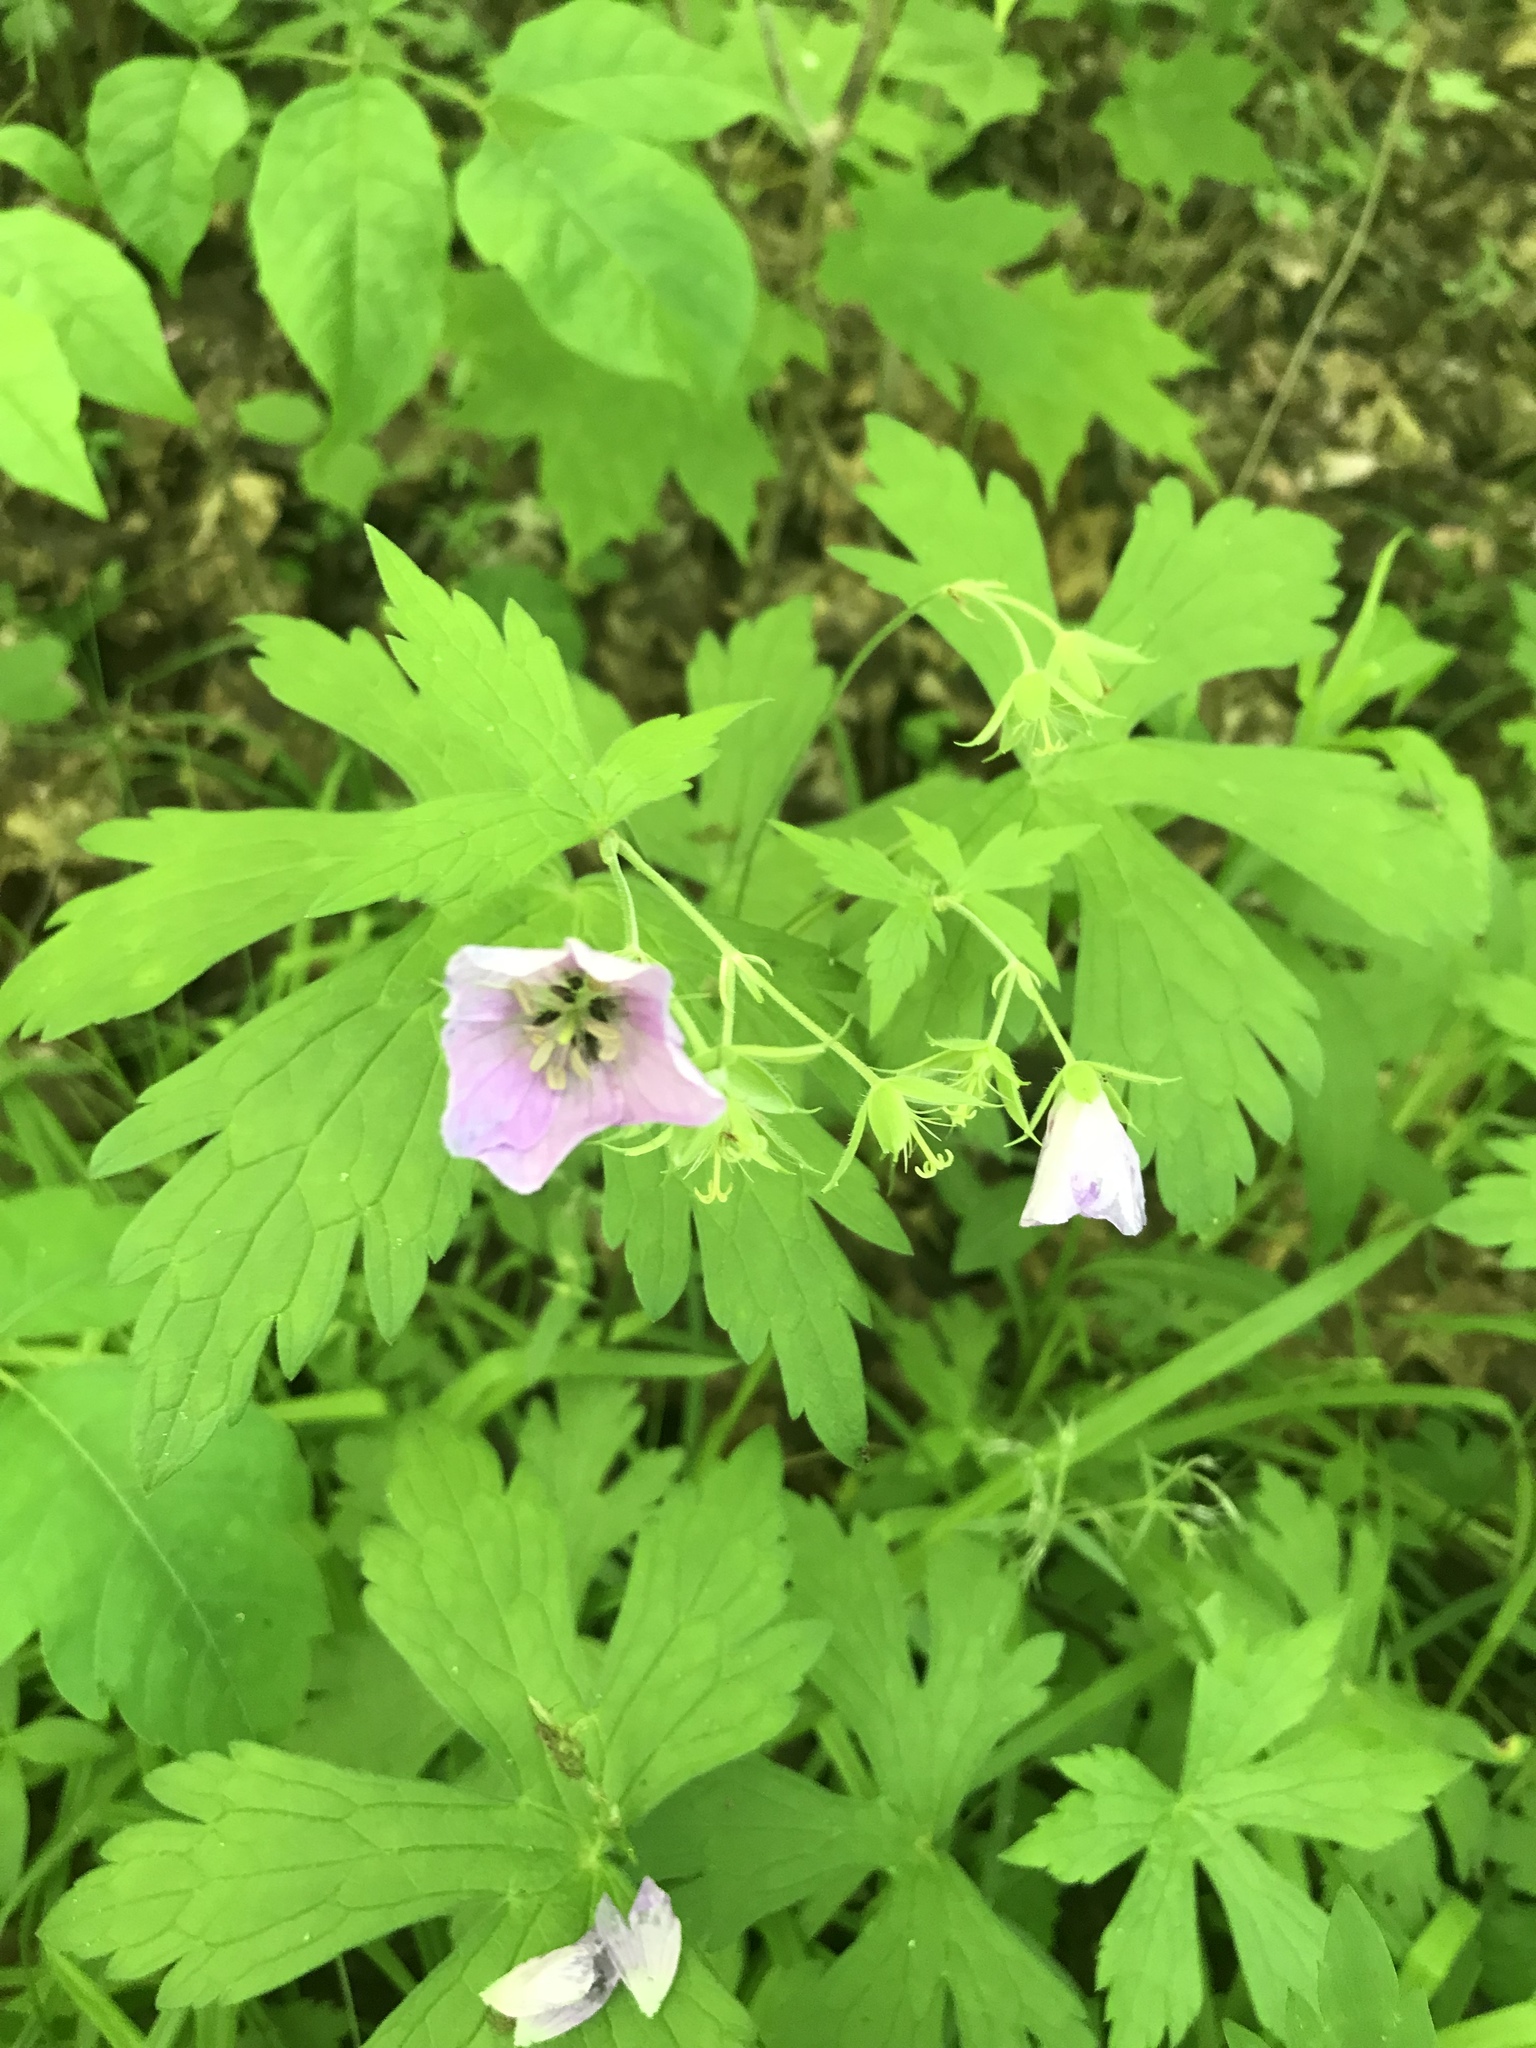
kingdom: Plantae
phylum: Tracheophyta
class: Magnoliopsida
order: Geraniales
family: Geraniaceae
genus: Geranium
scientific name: Geranium maculatum
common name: Spotted geranium
